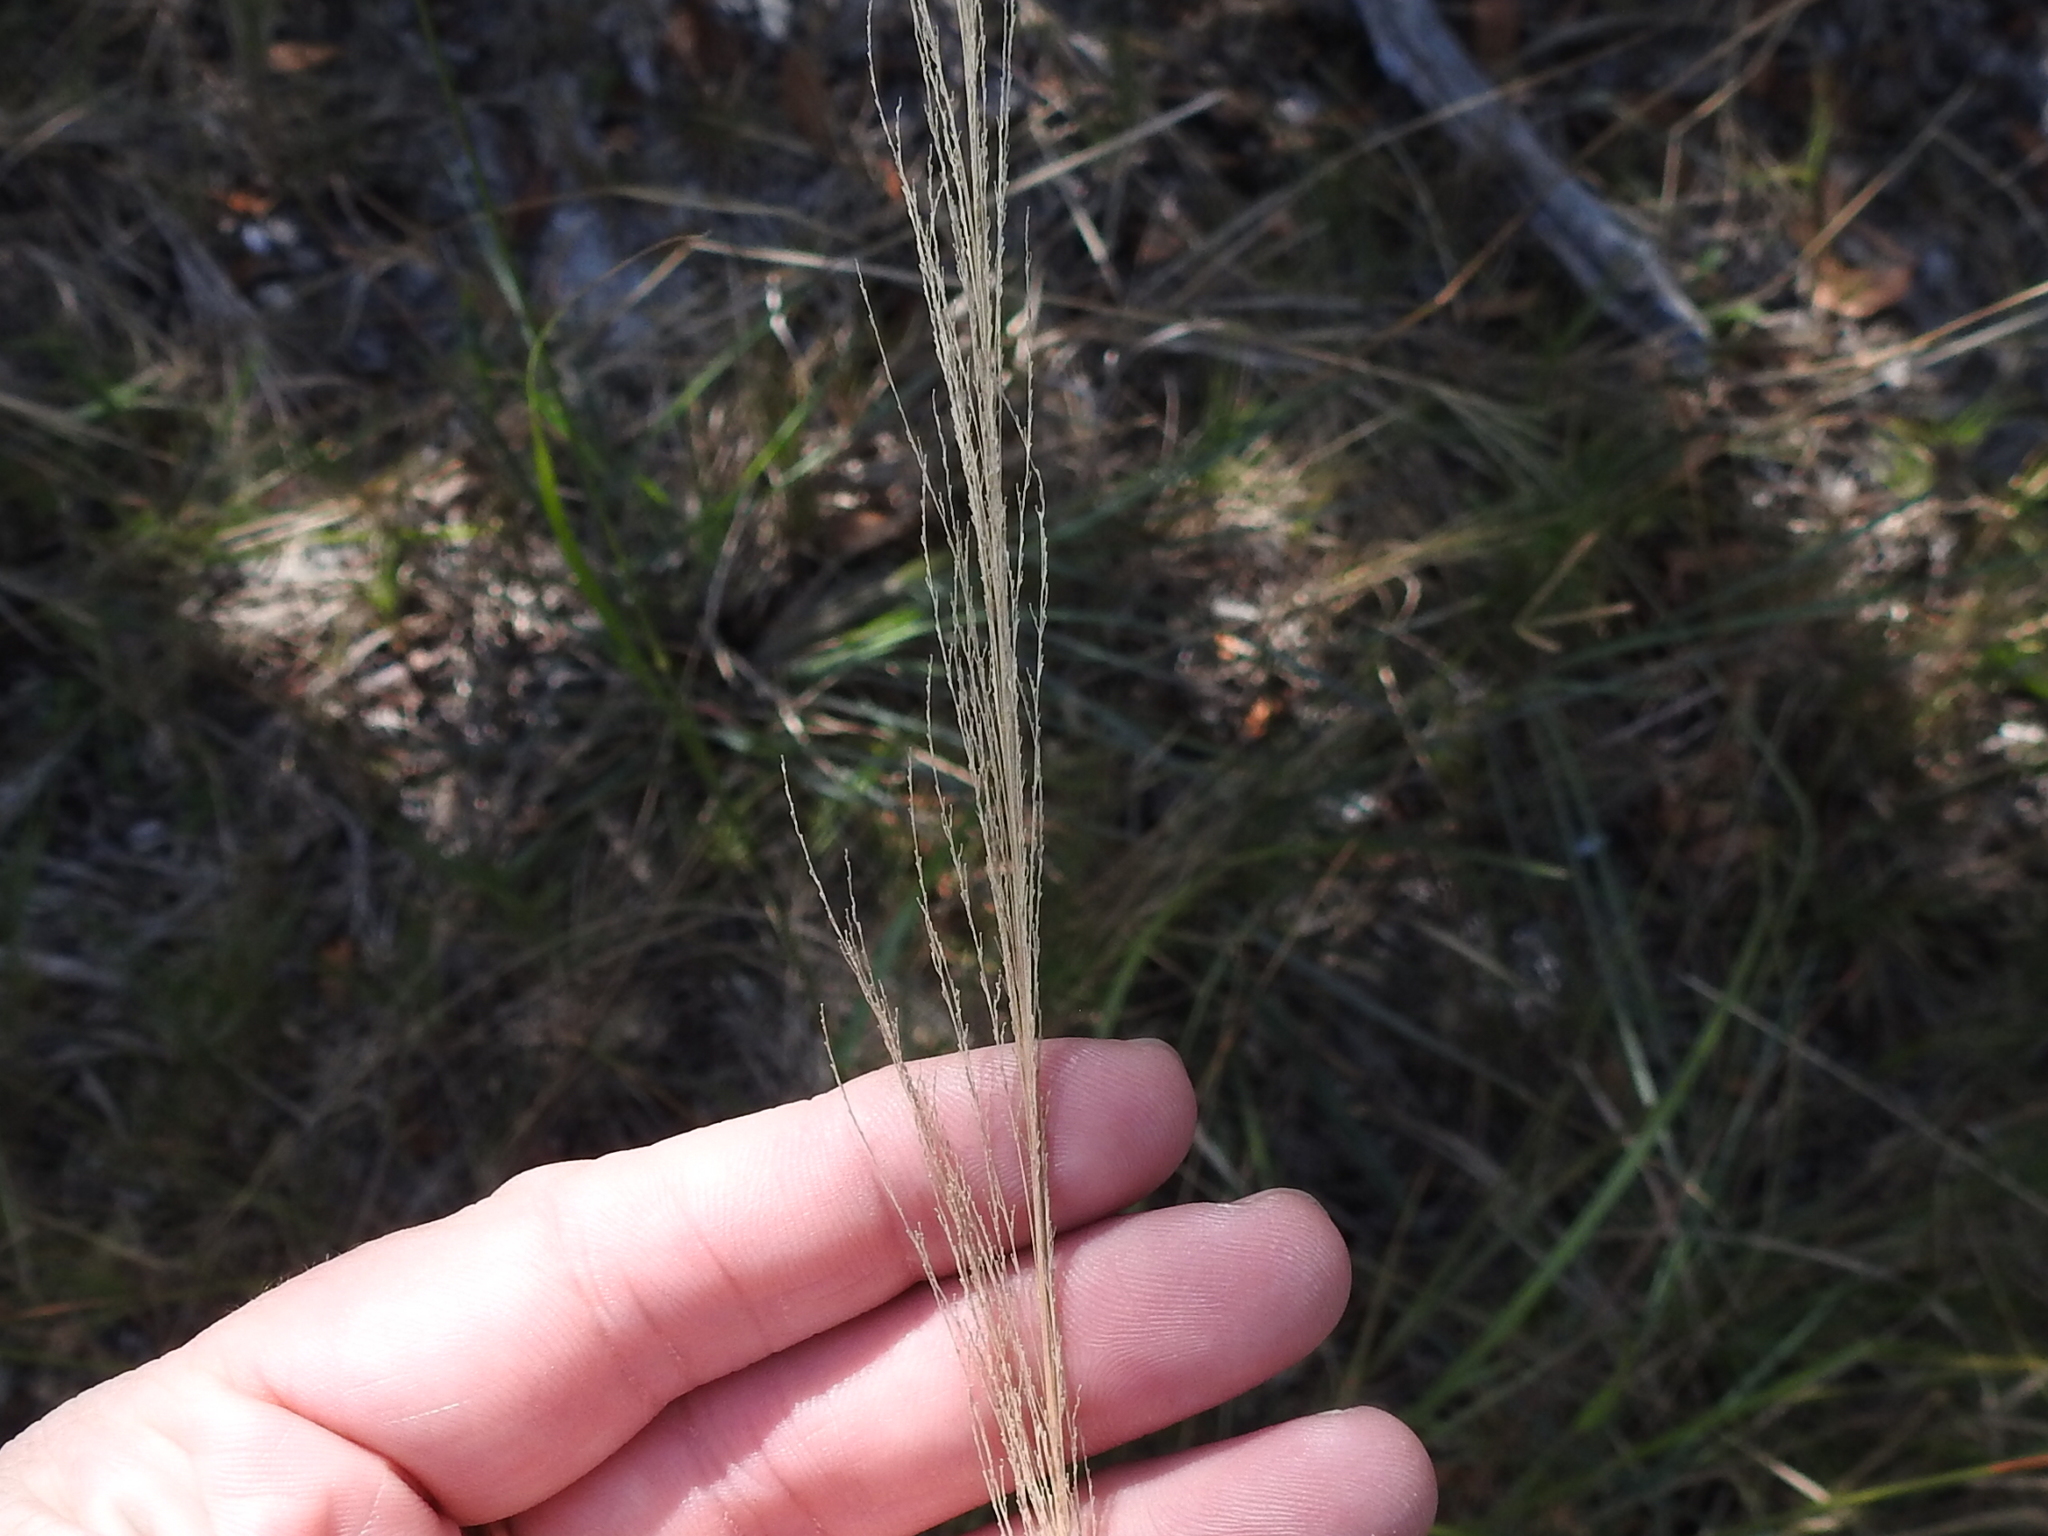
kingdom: Plantae
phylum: Tracheophyta
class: Liliopsida
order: Poales
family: Poaceae
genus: Sporobolus
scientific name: Sporobolus pyramidalis
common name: West indian dropseed
